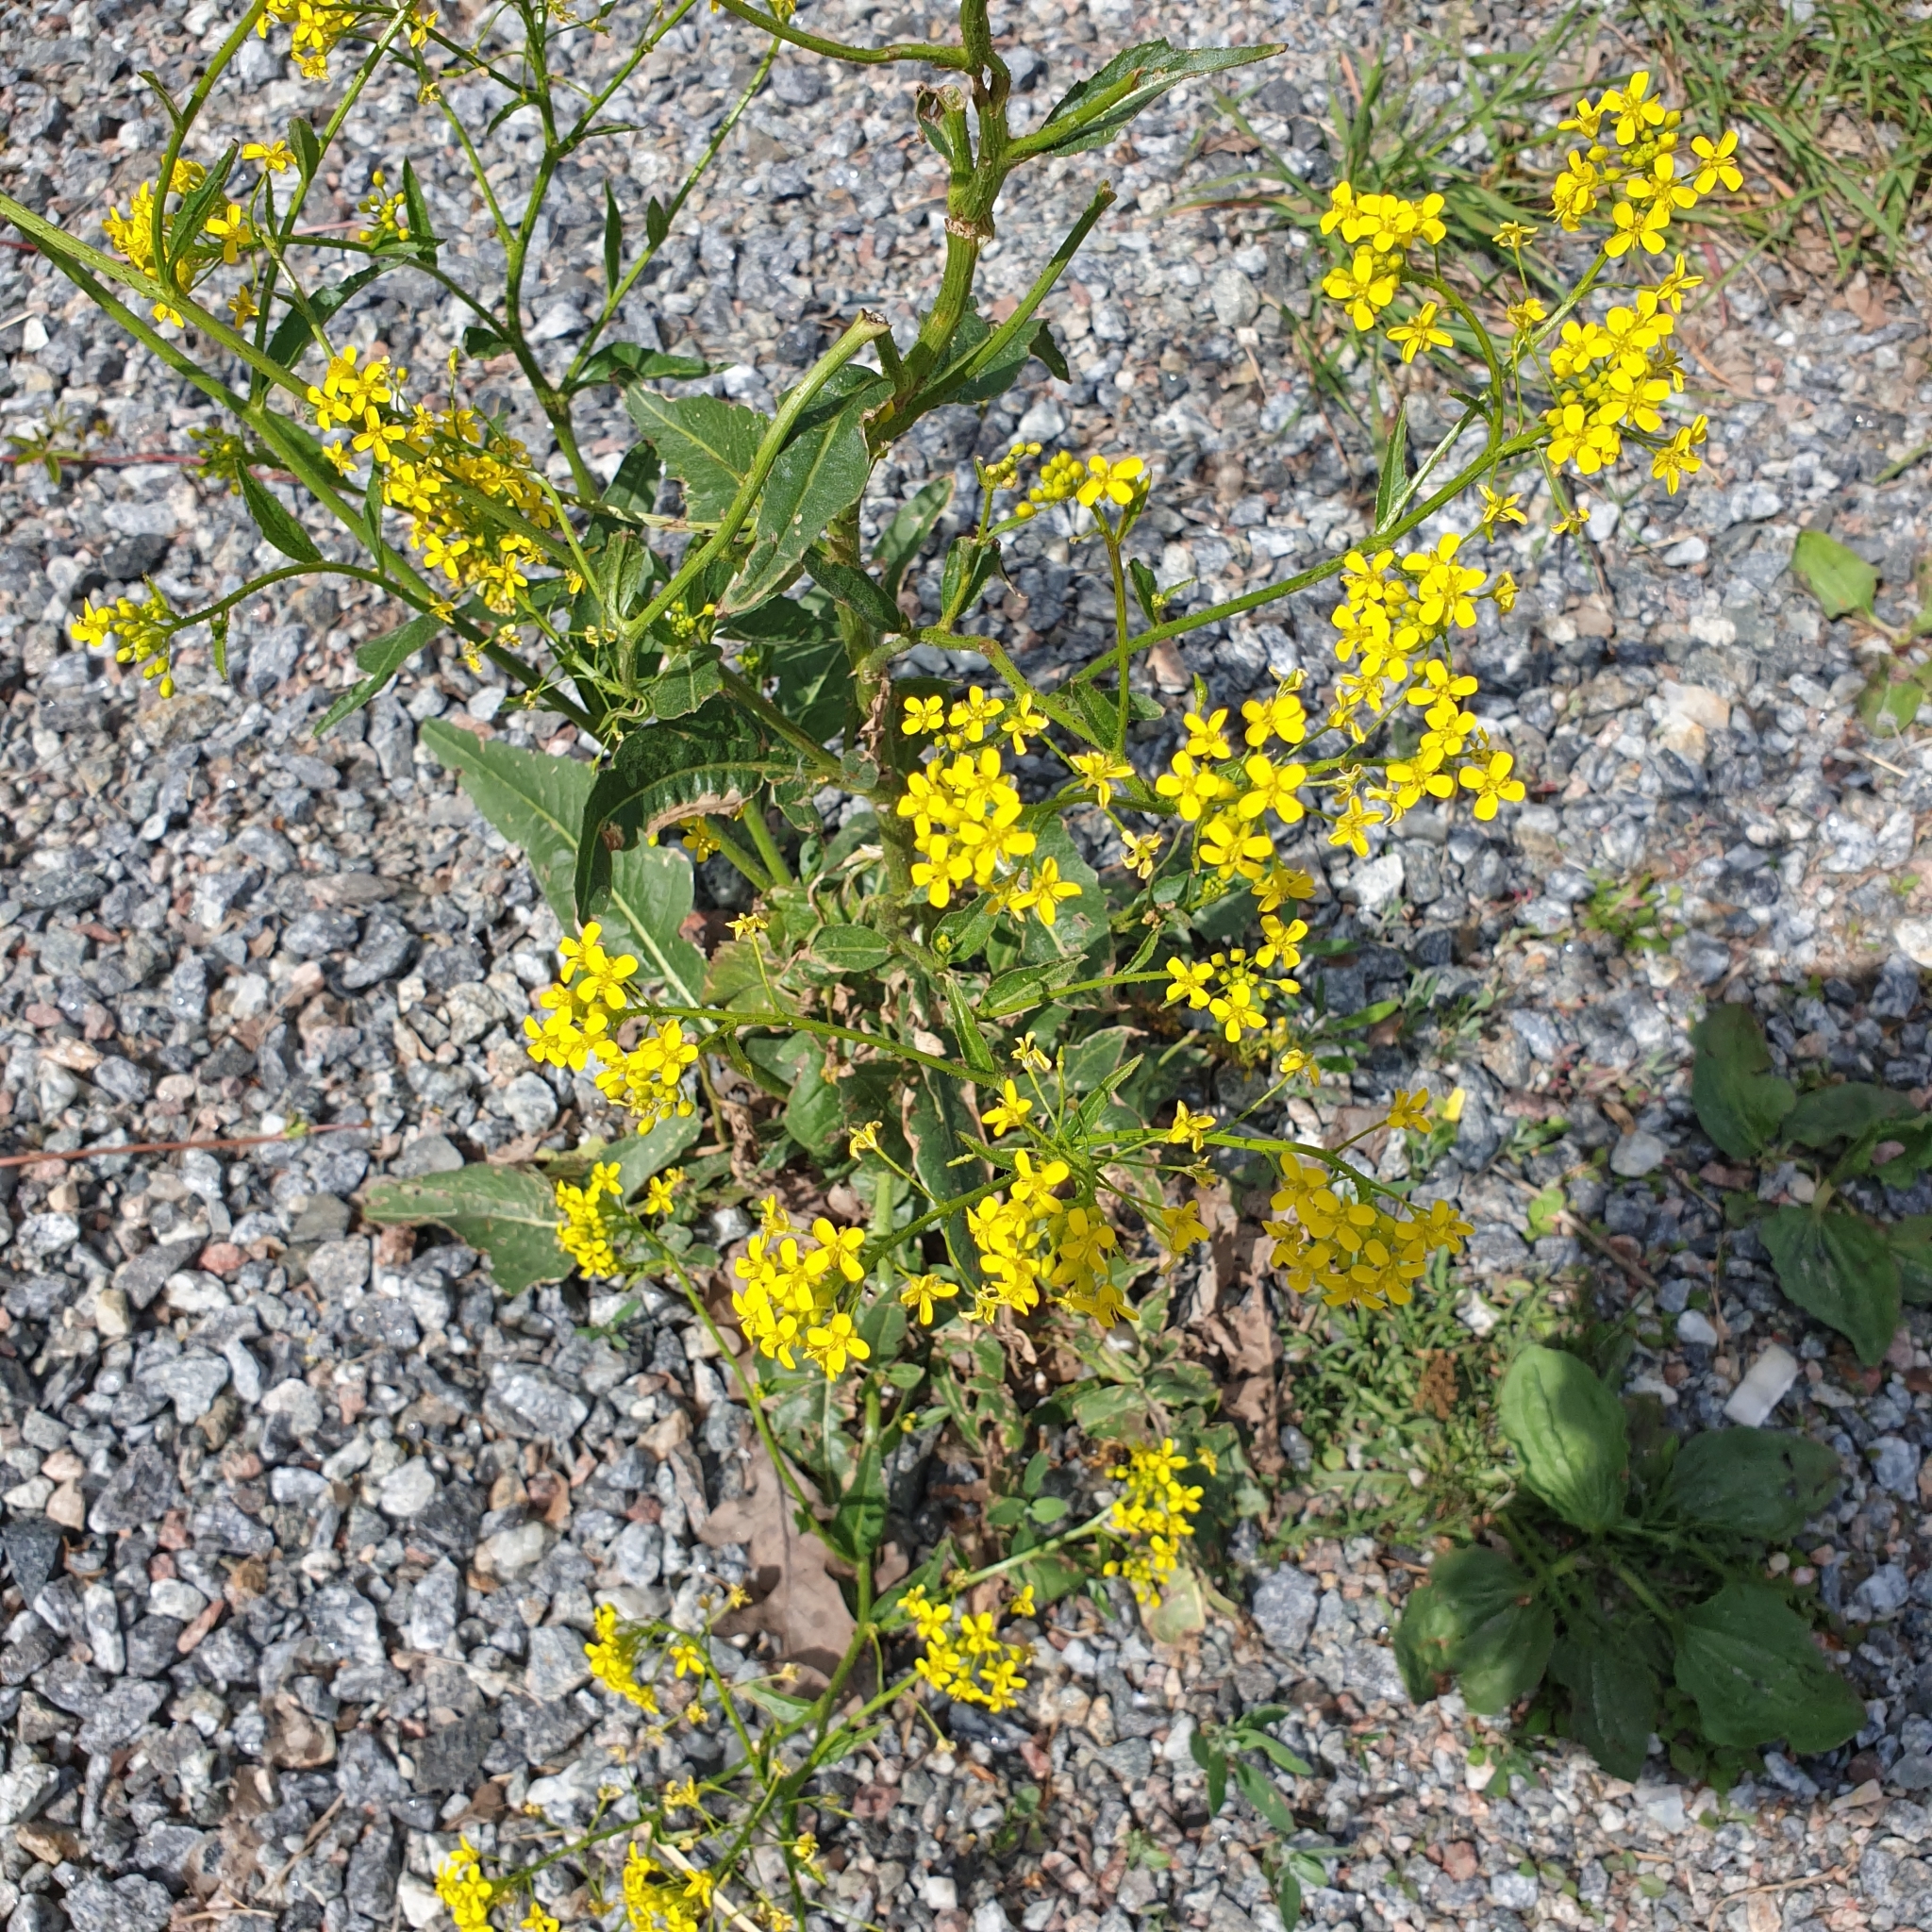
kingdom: Plantae
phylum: Tracheophyta
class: Magnoliopsida
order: Brassicales
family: Brassicaceae
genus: Bunias
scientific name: Bunias orientalis
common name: Warty-cabbage
